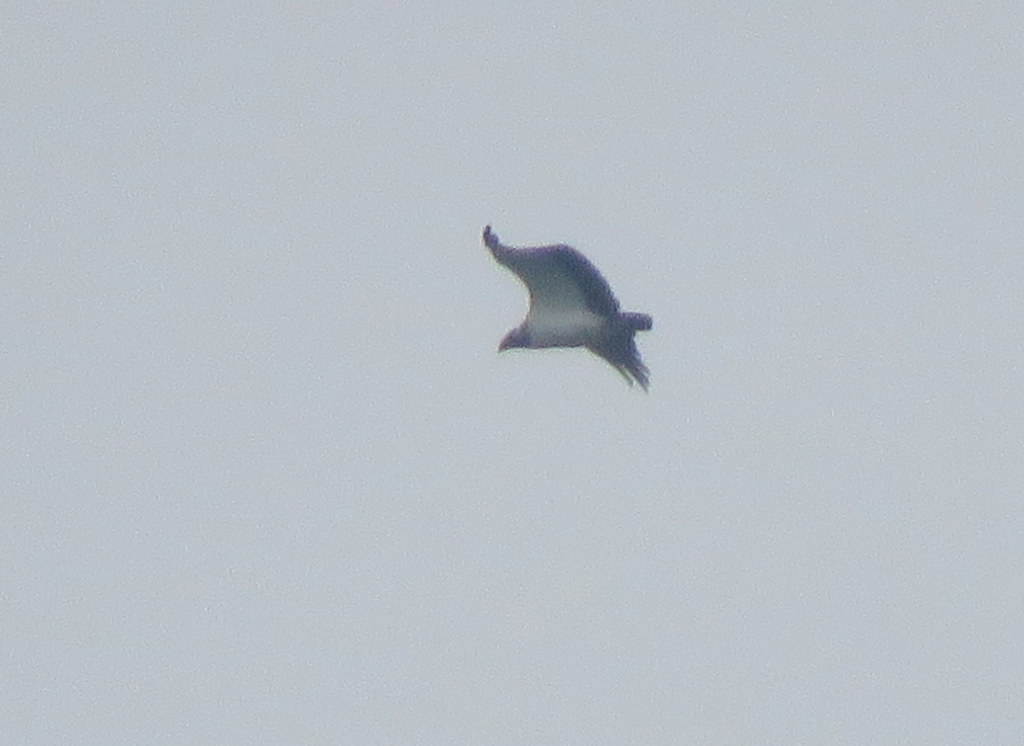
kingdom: Animalia
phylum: Chordata
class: Aves
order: Accipitriformes
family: Cathartidae
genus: Sarcoramphus
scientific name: Sarcoramphus papa
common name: King vulture
